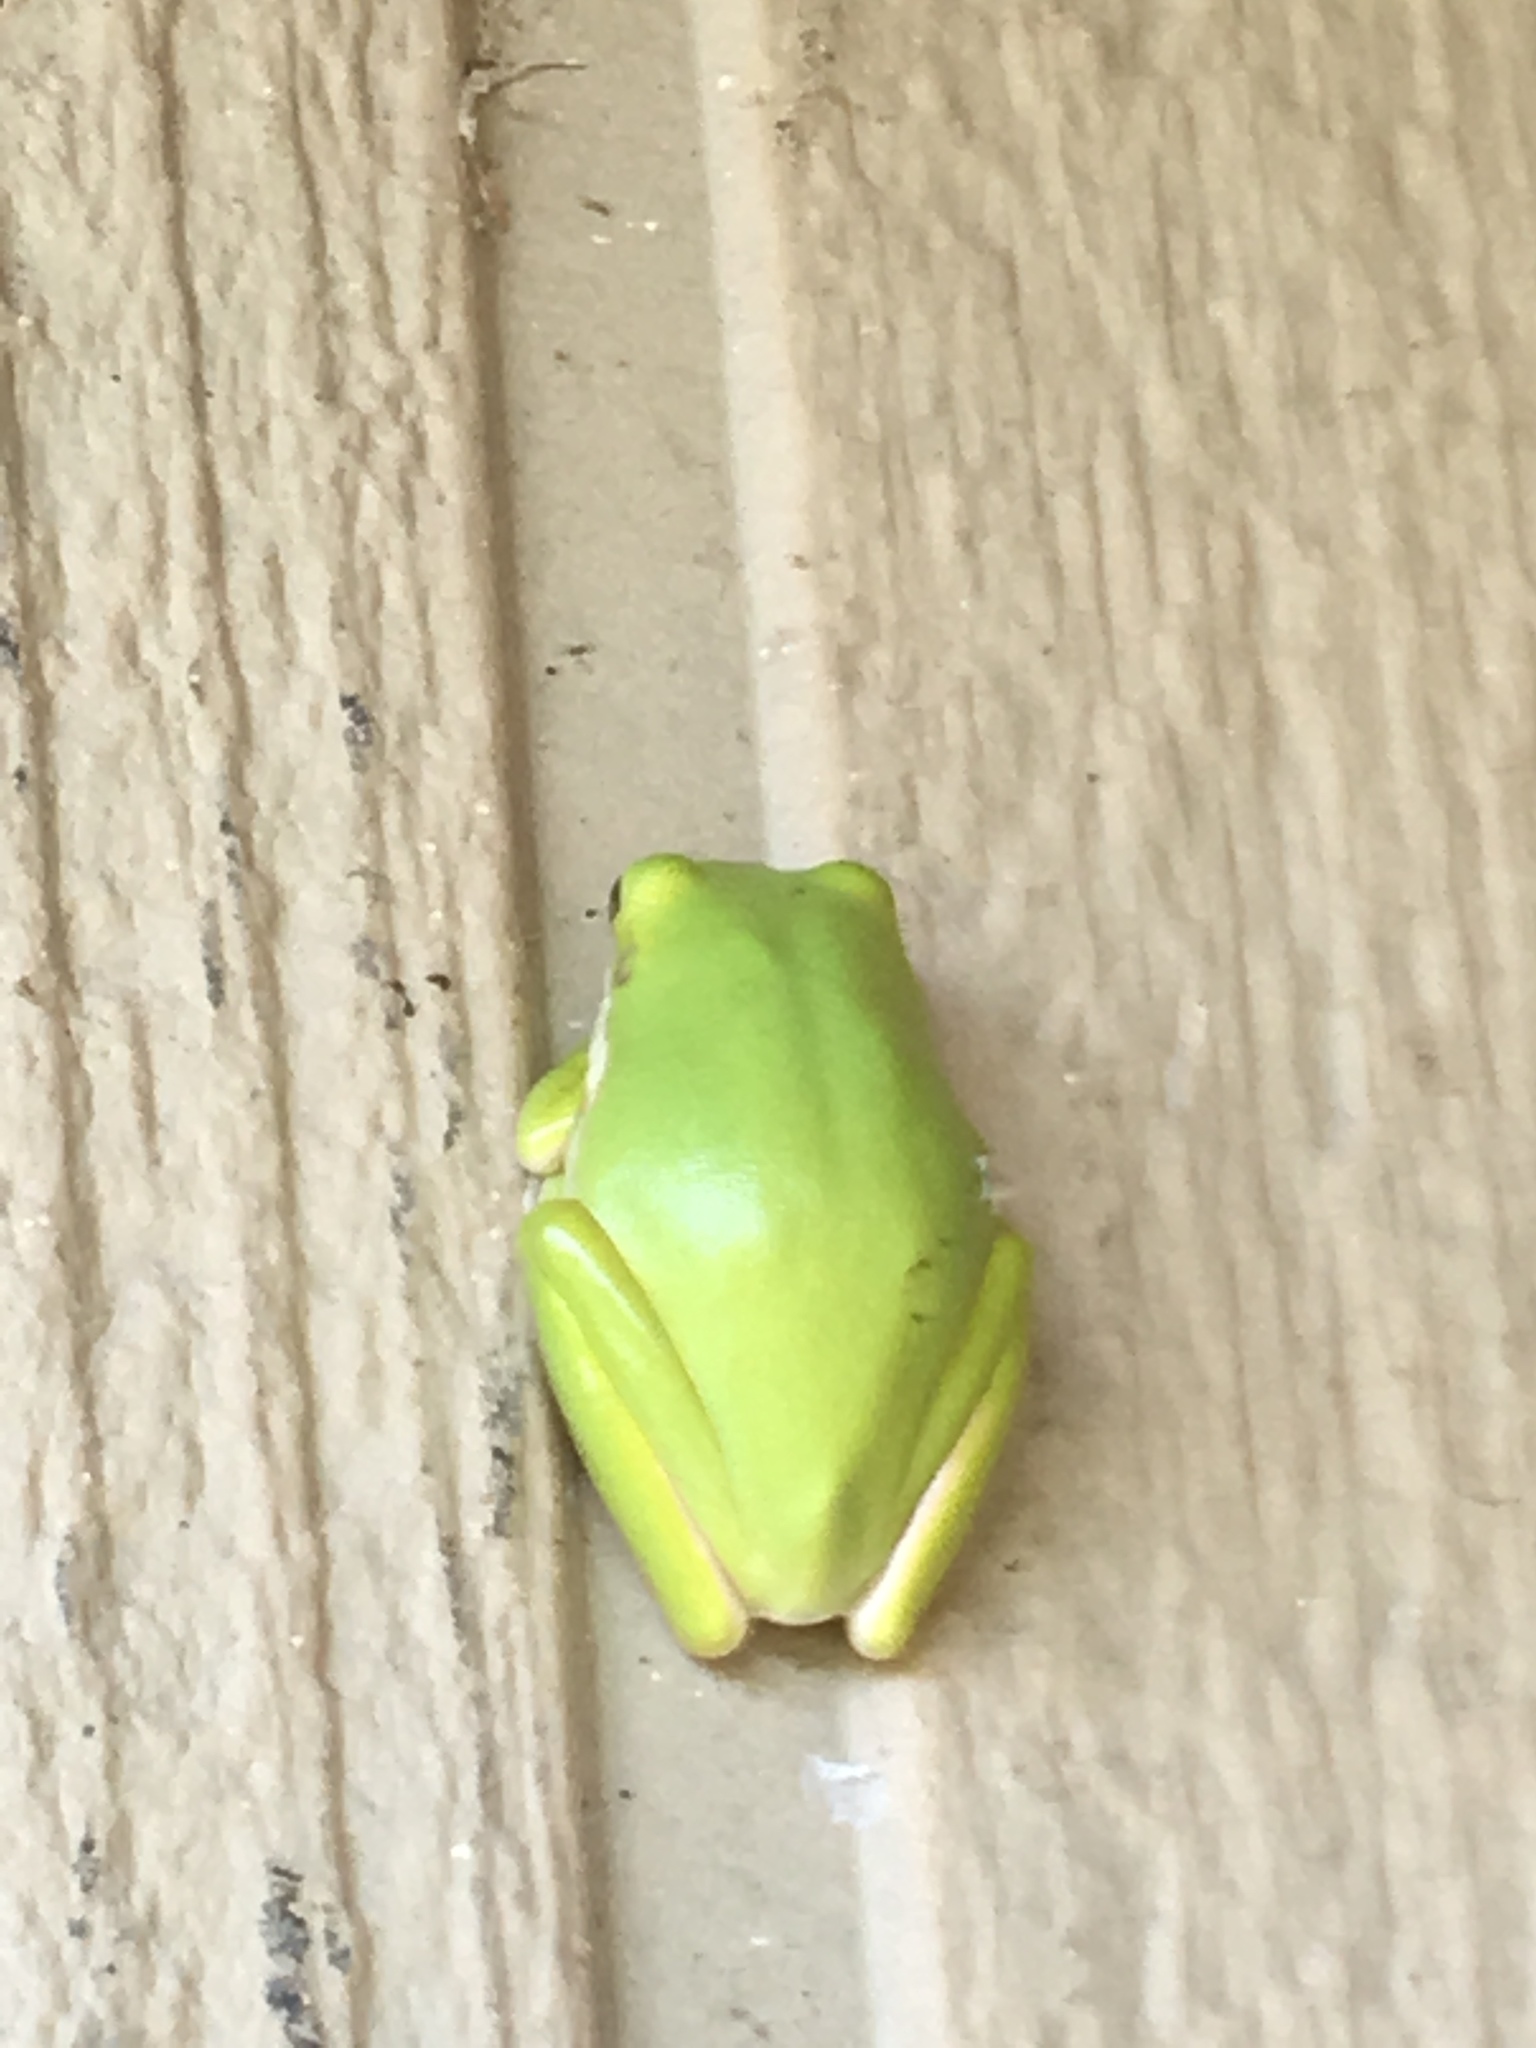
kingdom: Animalia
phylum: Chordata
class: Amphibia
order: Anura
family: Hylidae
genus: Dryophytes
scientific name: Dryophytes cinereus
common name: Green treefrog
